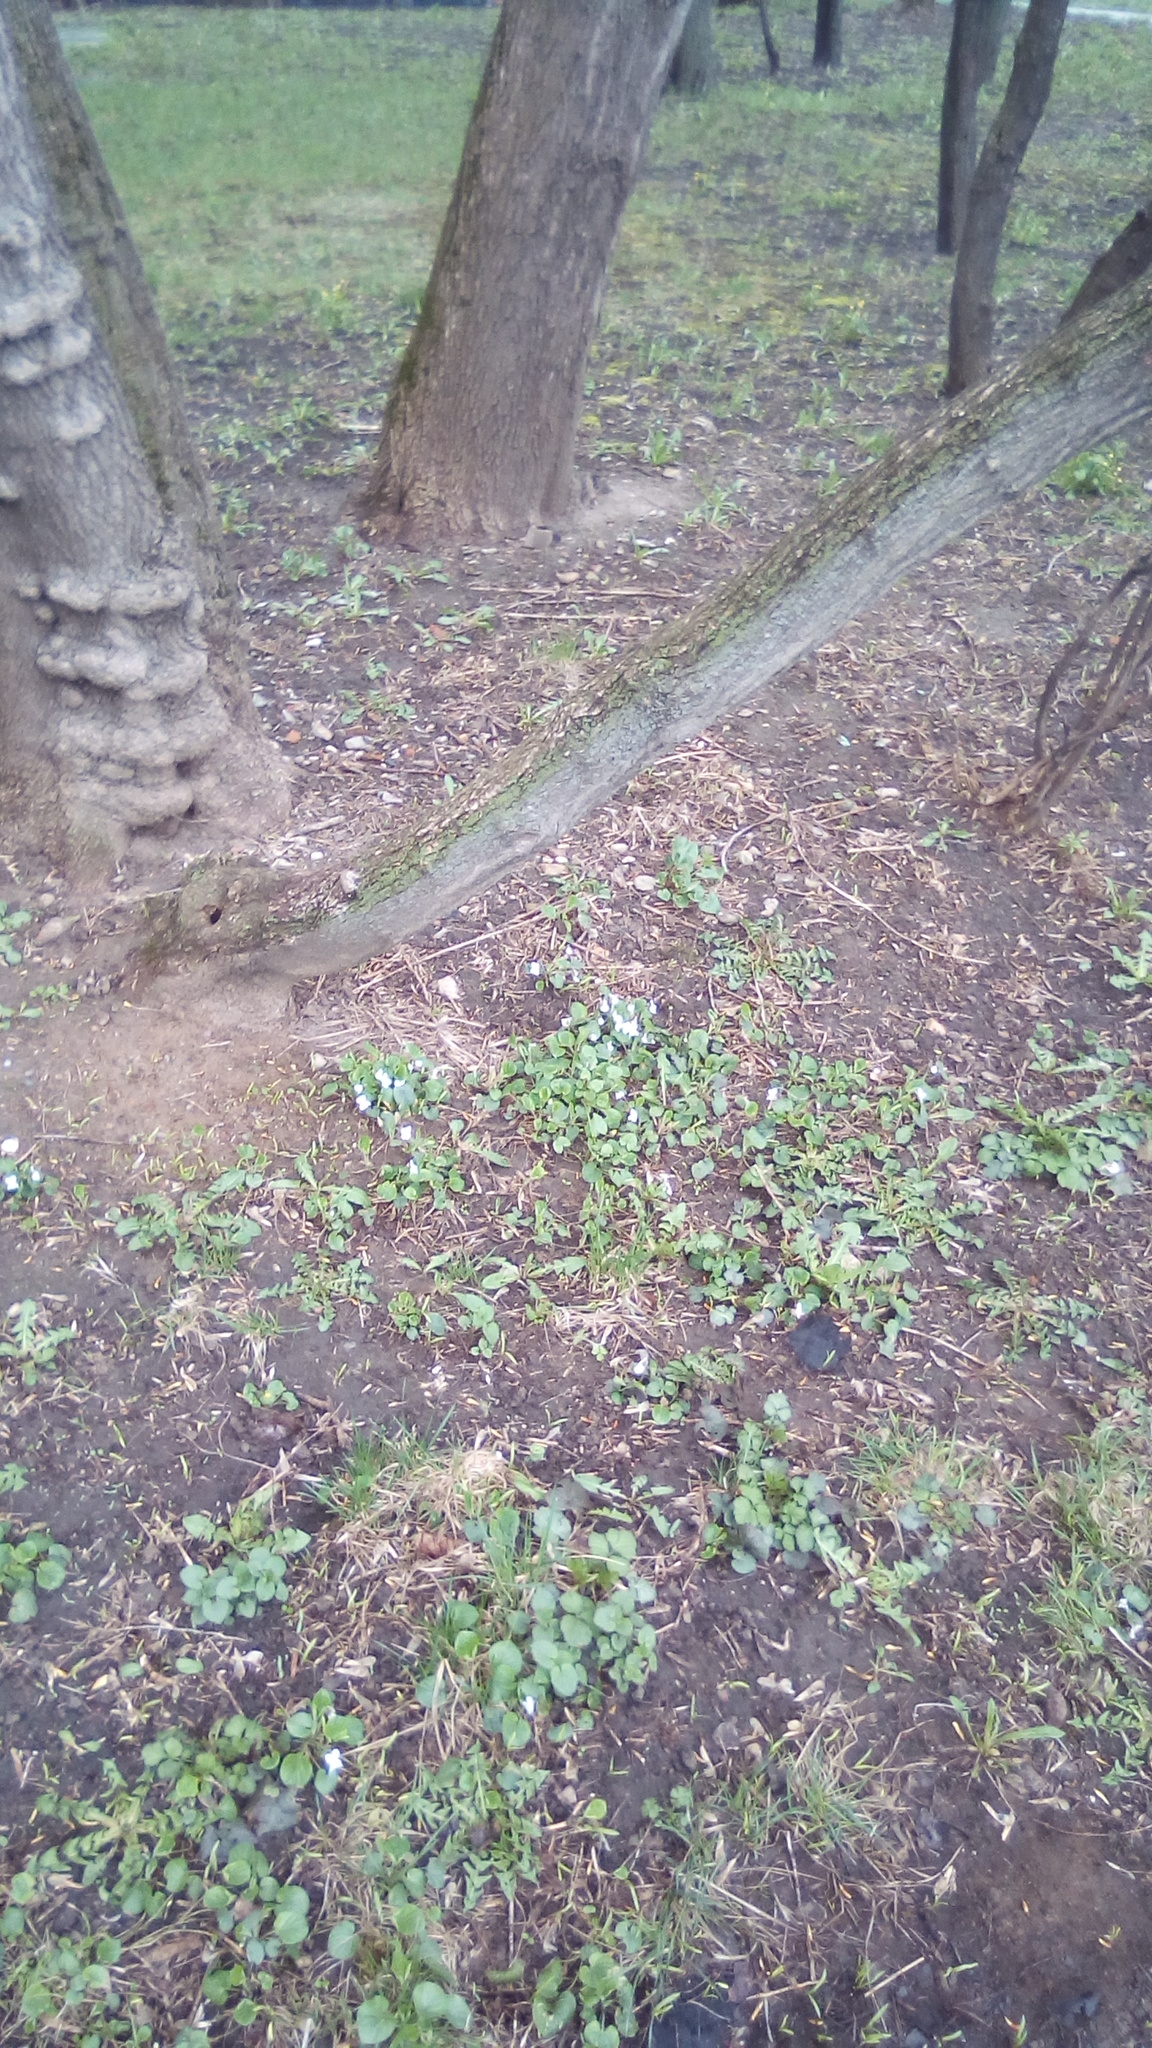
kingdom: Plantae
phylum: Tracheophyta
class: Magnoliopsida
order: Malpighiales
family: Violaceae
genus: Viola
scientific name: Viola sororia
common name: Dooryard violet
